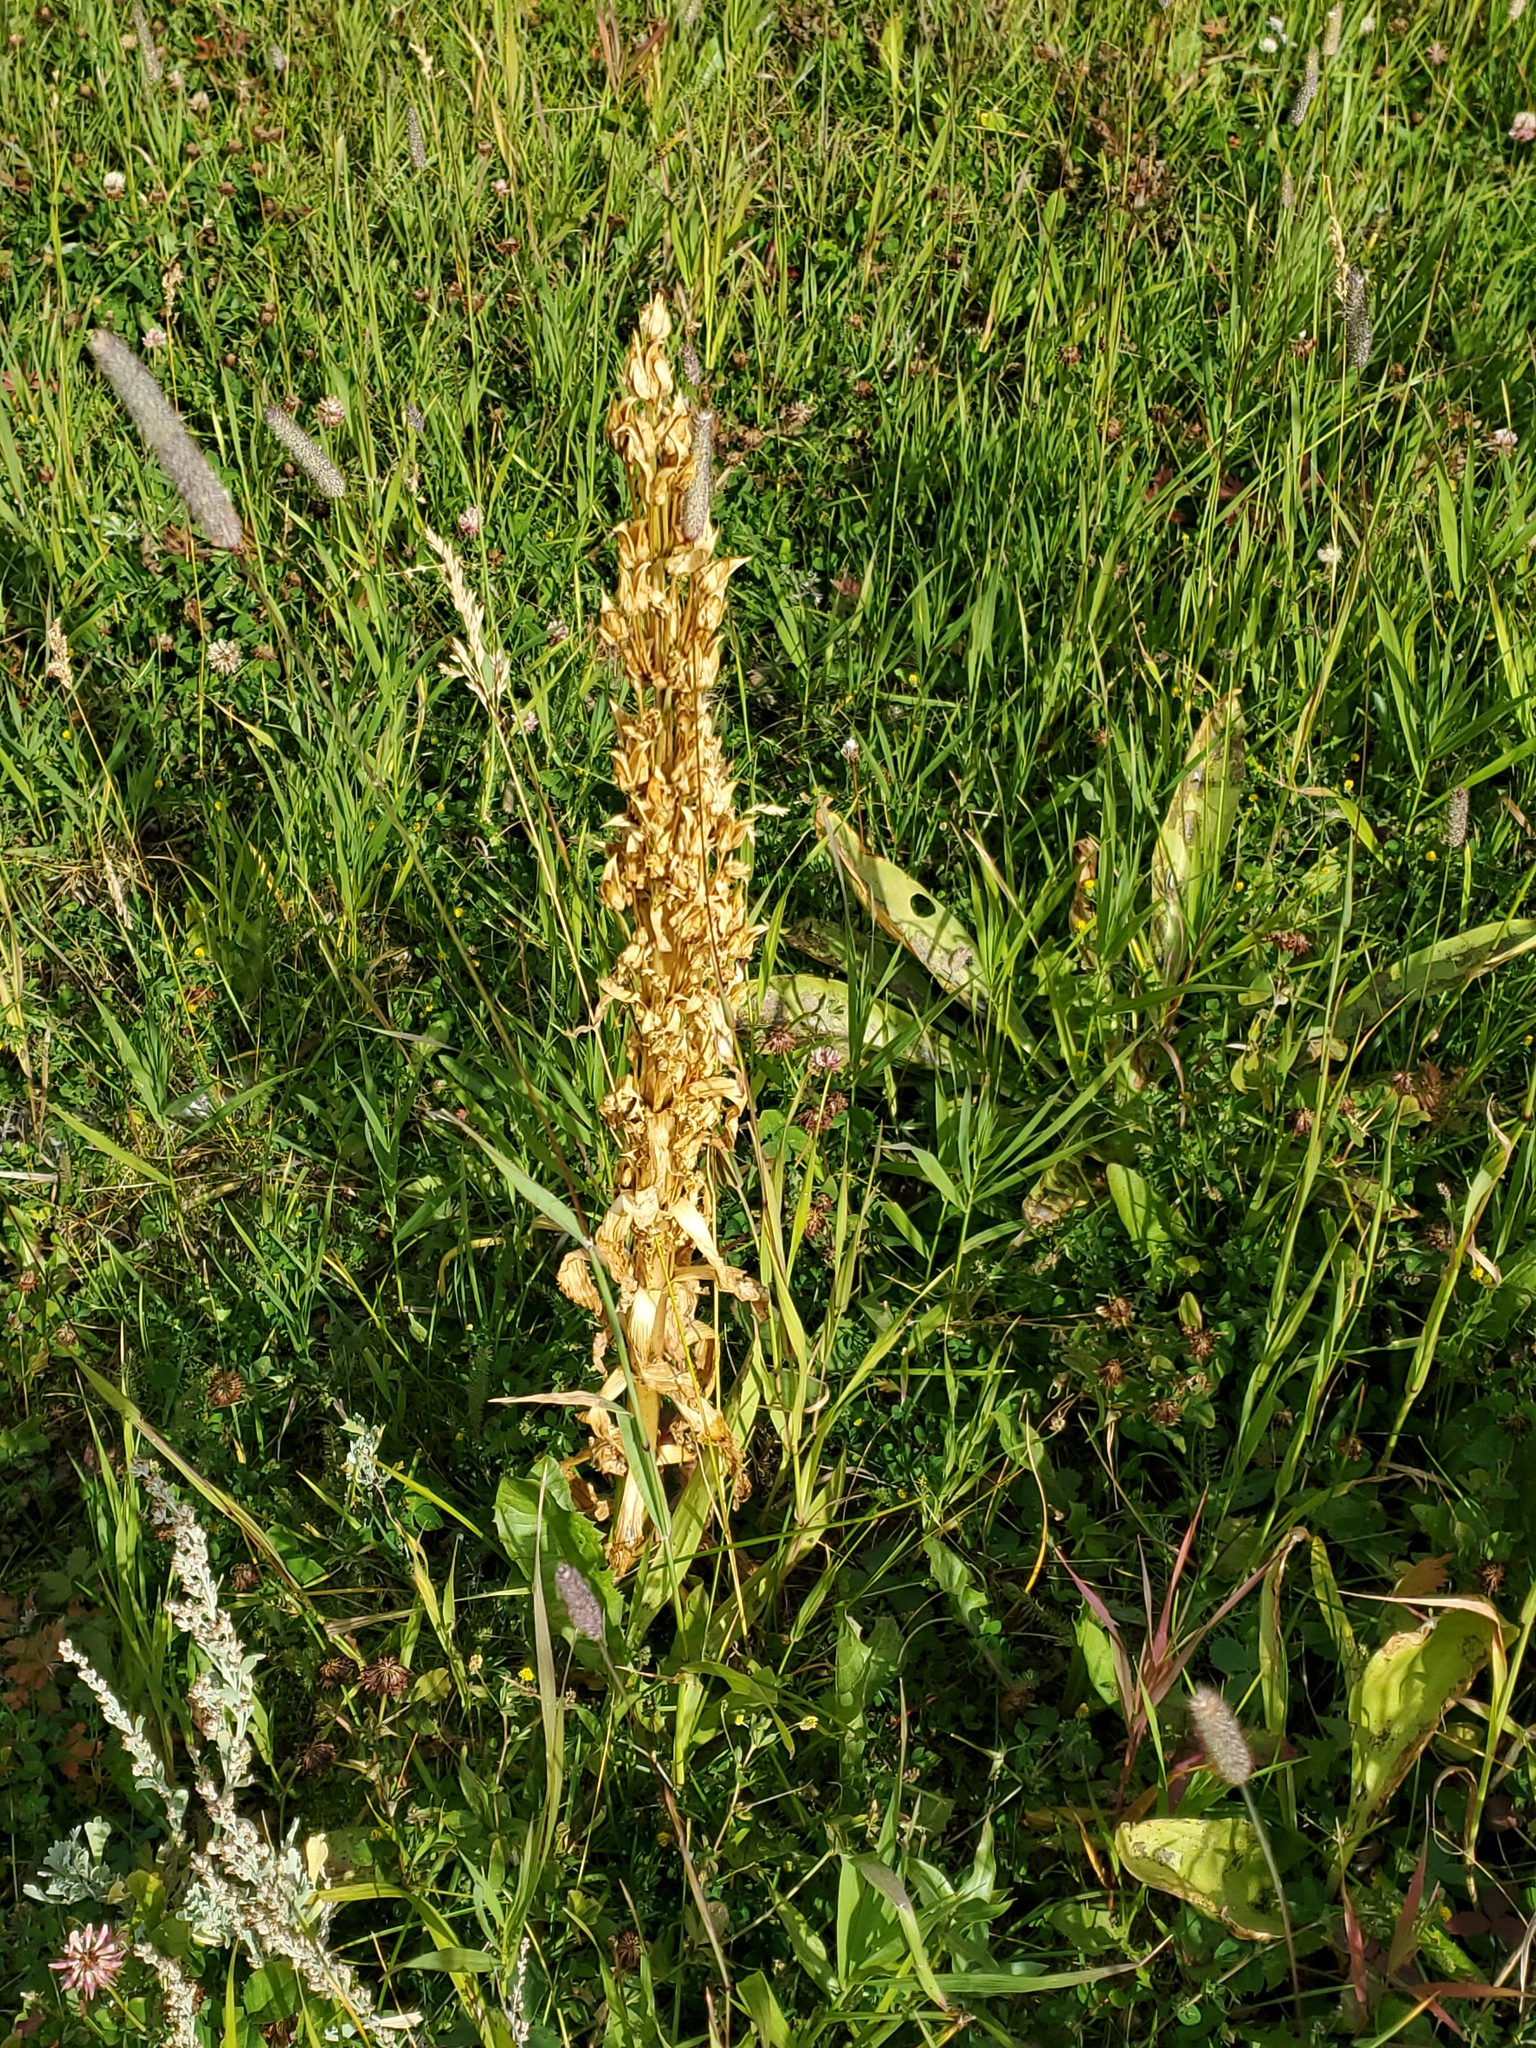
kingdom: Plantae
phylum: Tracheophyta
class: Magnoliopsida
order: Gentianales
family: Gentianaceae
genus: Frasera
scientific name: Frasera speciosa
